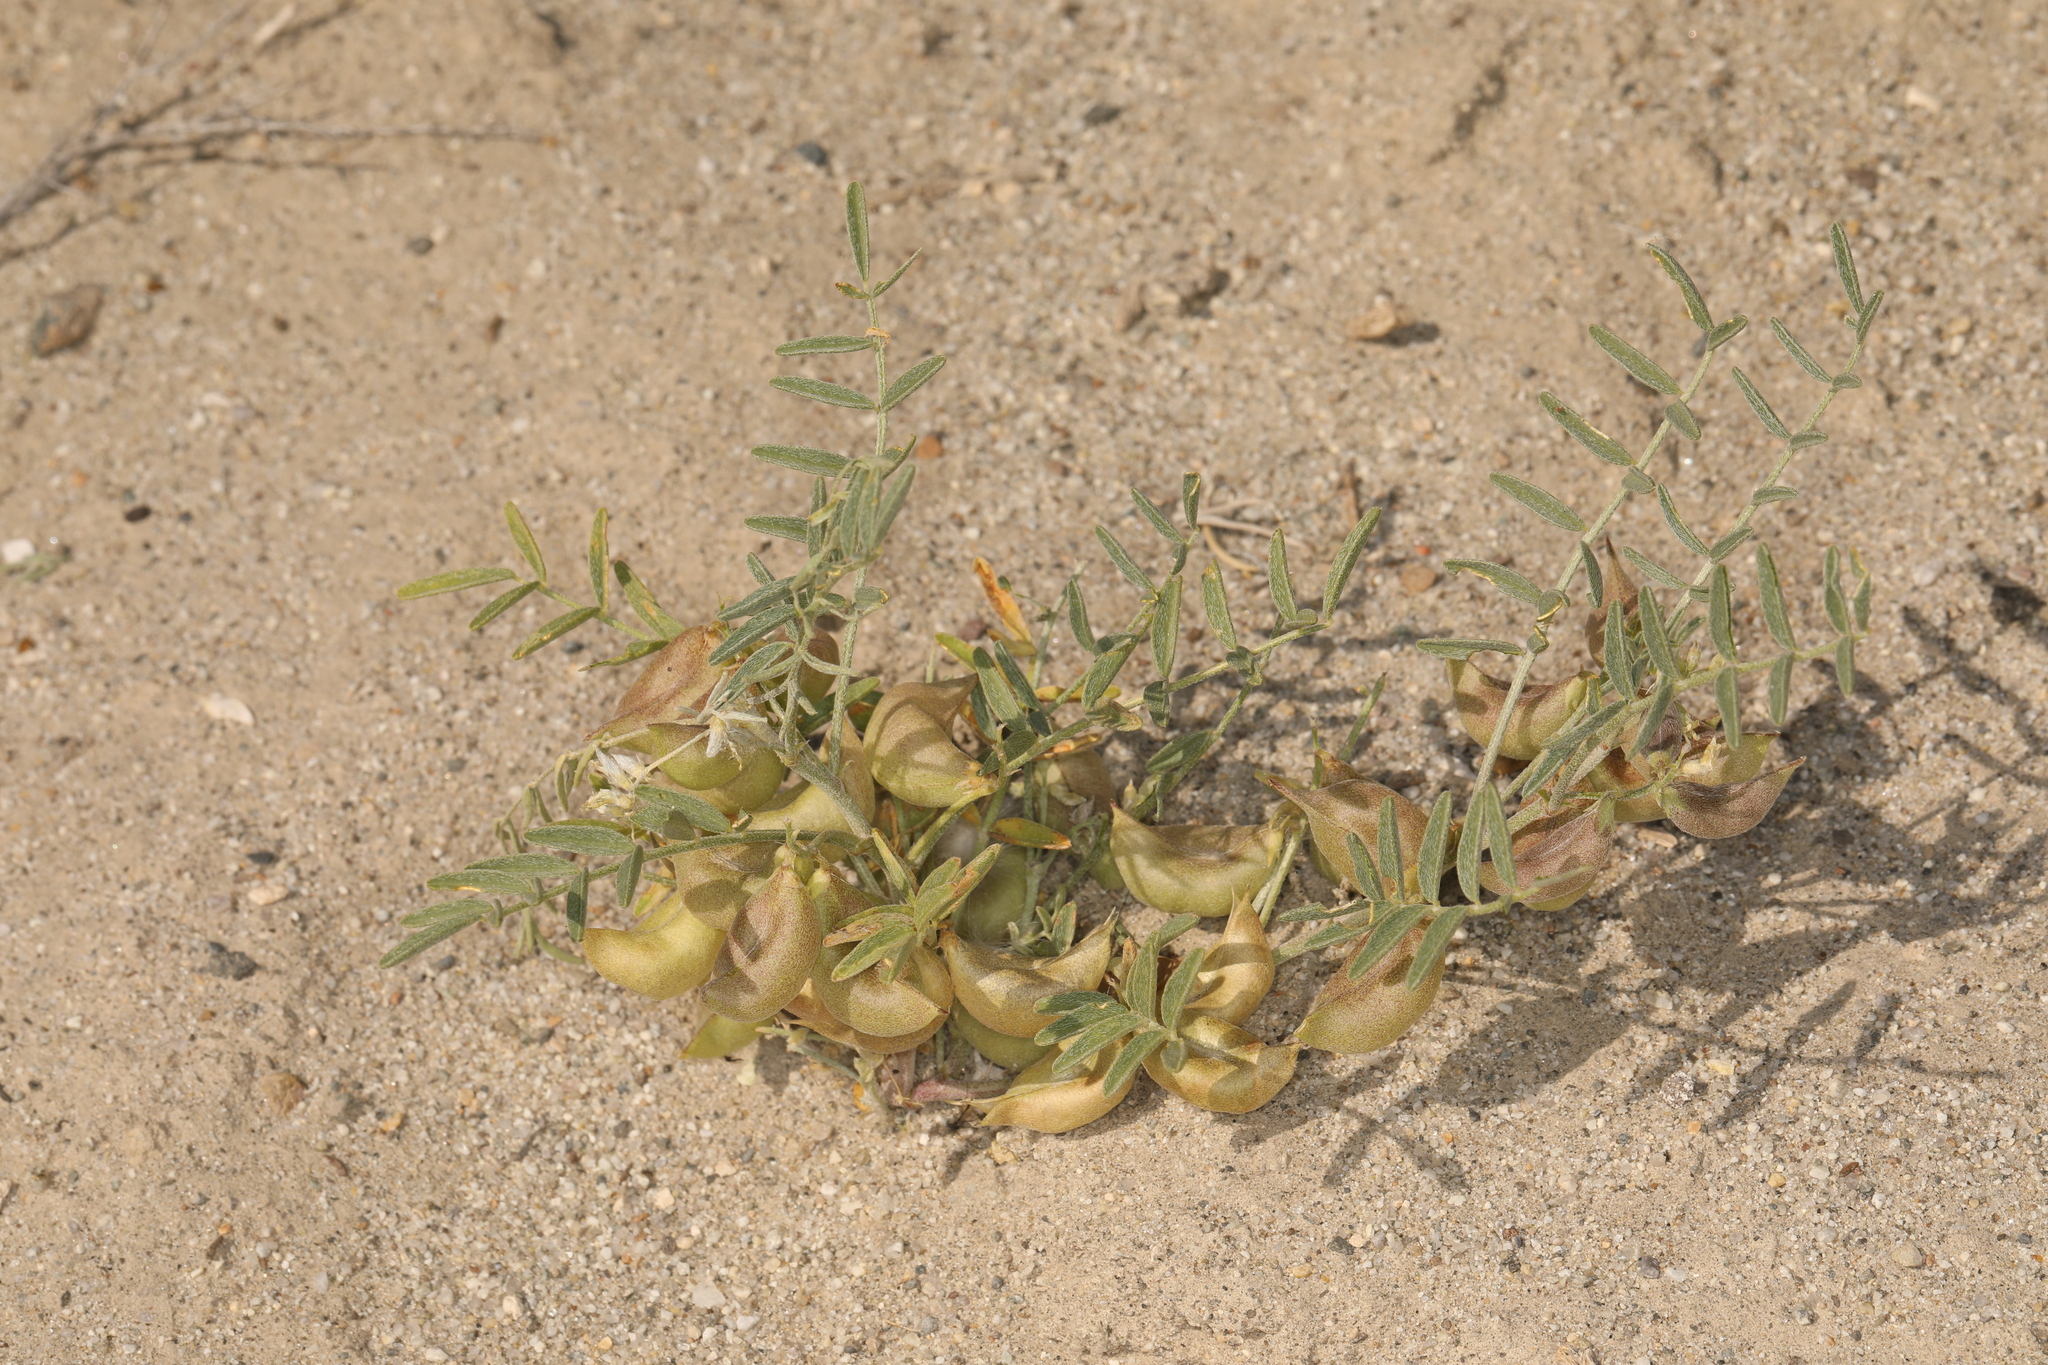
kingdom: Plantae
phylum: Tracheophyta
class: Magnoliopsida
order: Fabales
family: Fabaceae
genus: Astragalus
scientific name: Astragalus geyeri
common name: Geyer's milkvetch
